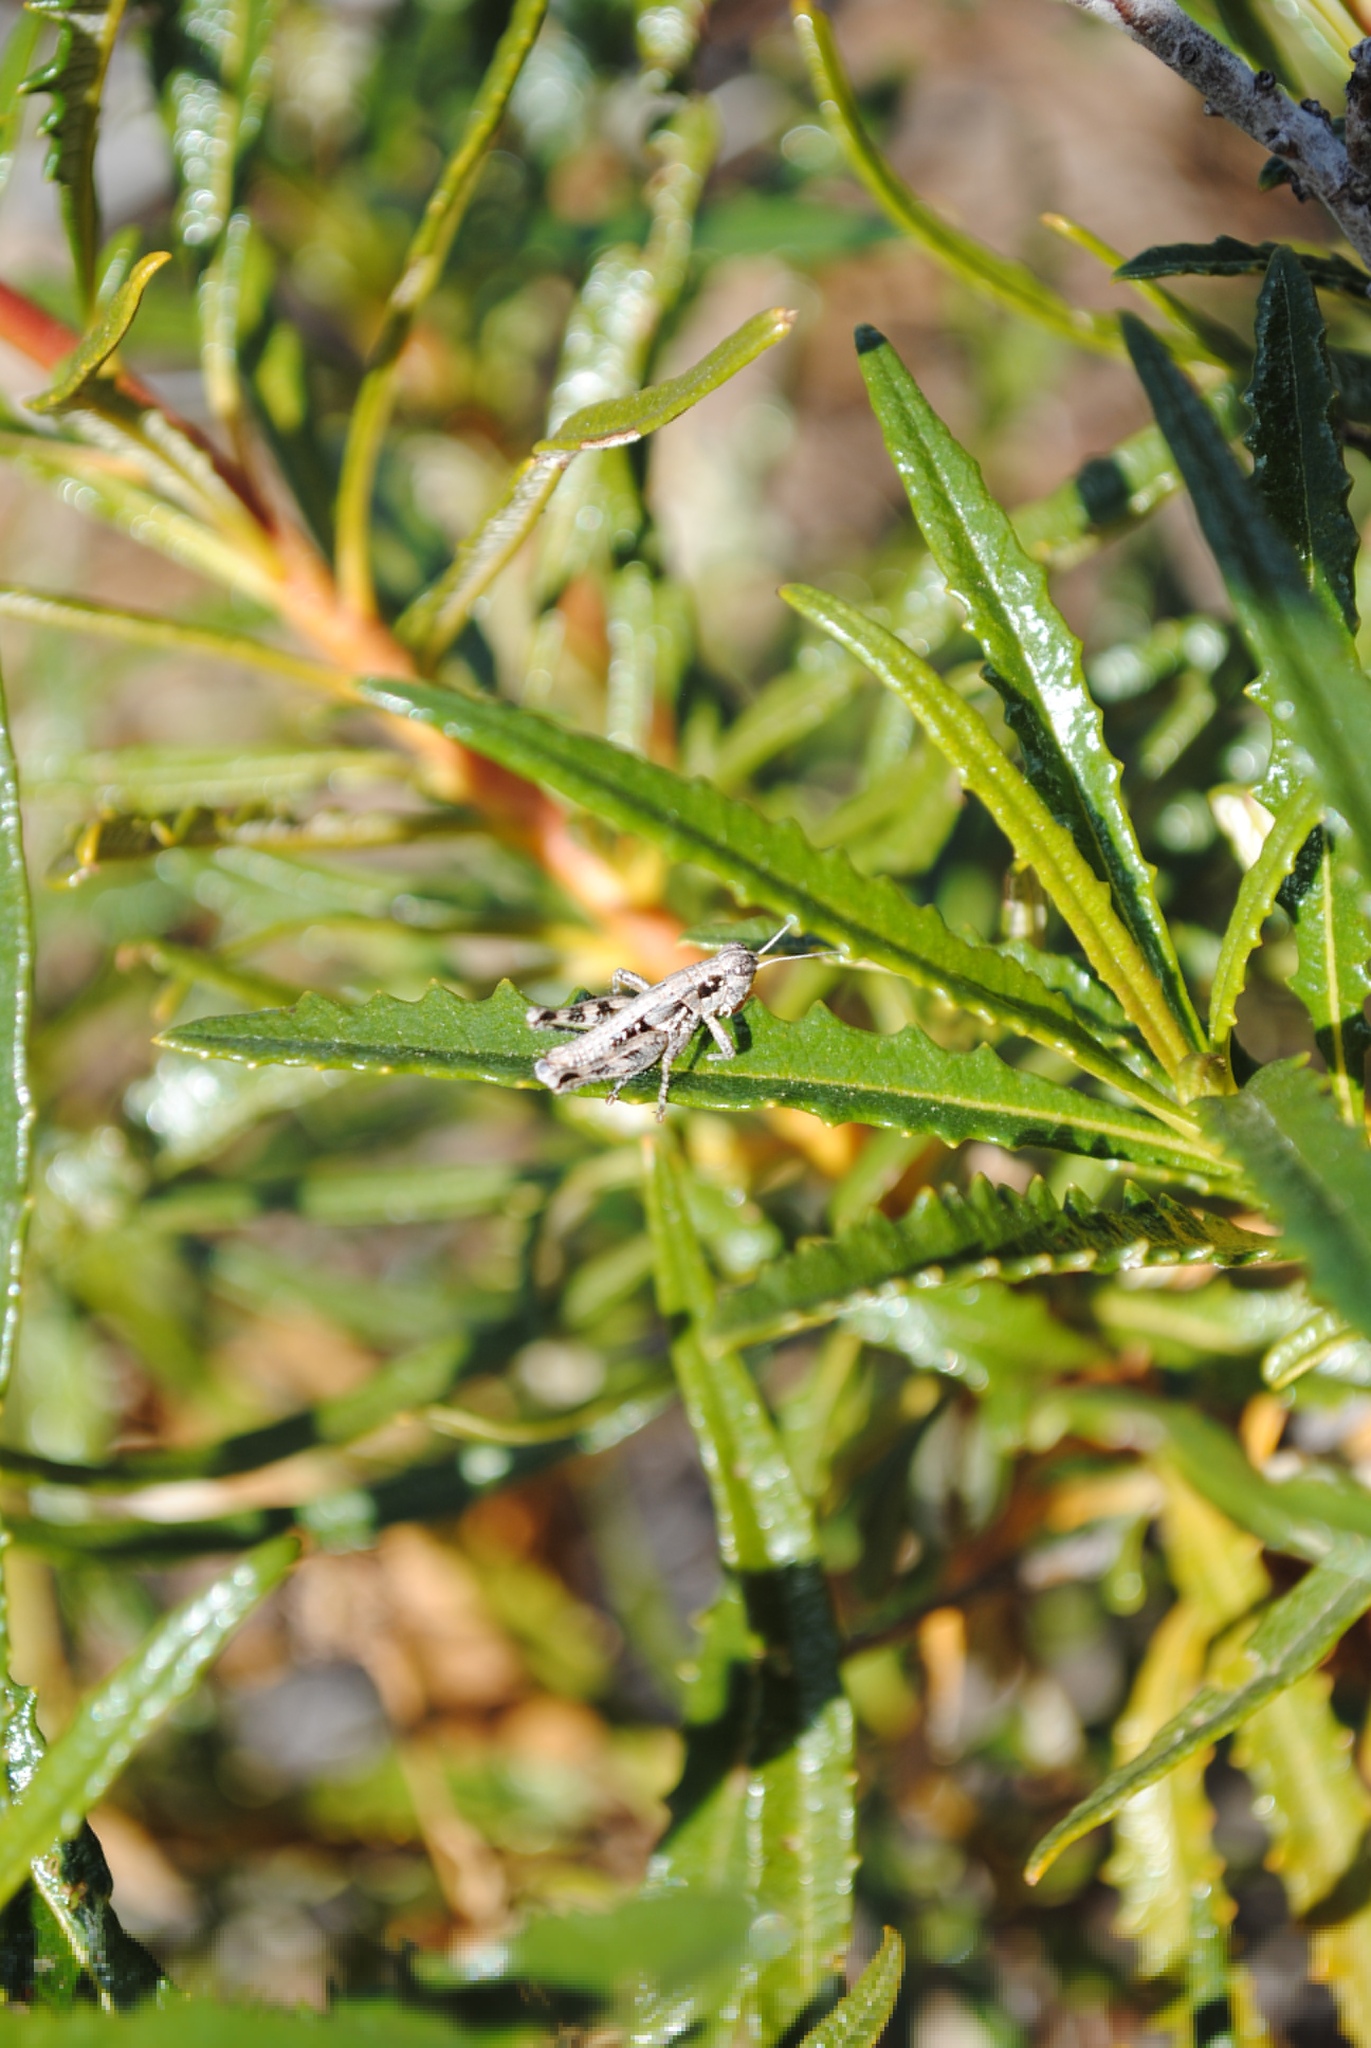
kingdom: Animalia
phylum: Arthropoda
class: Insecta
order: Orthoptera
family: Acrididae
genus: Melanoplus
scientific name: Melanoplus aridus
